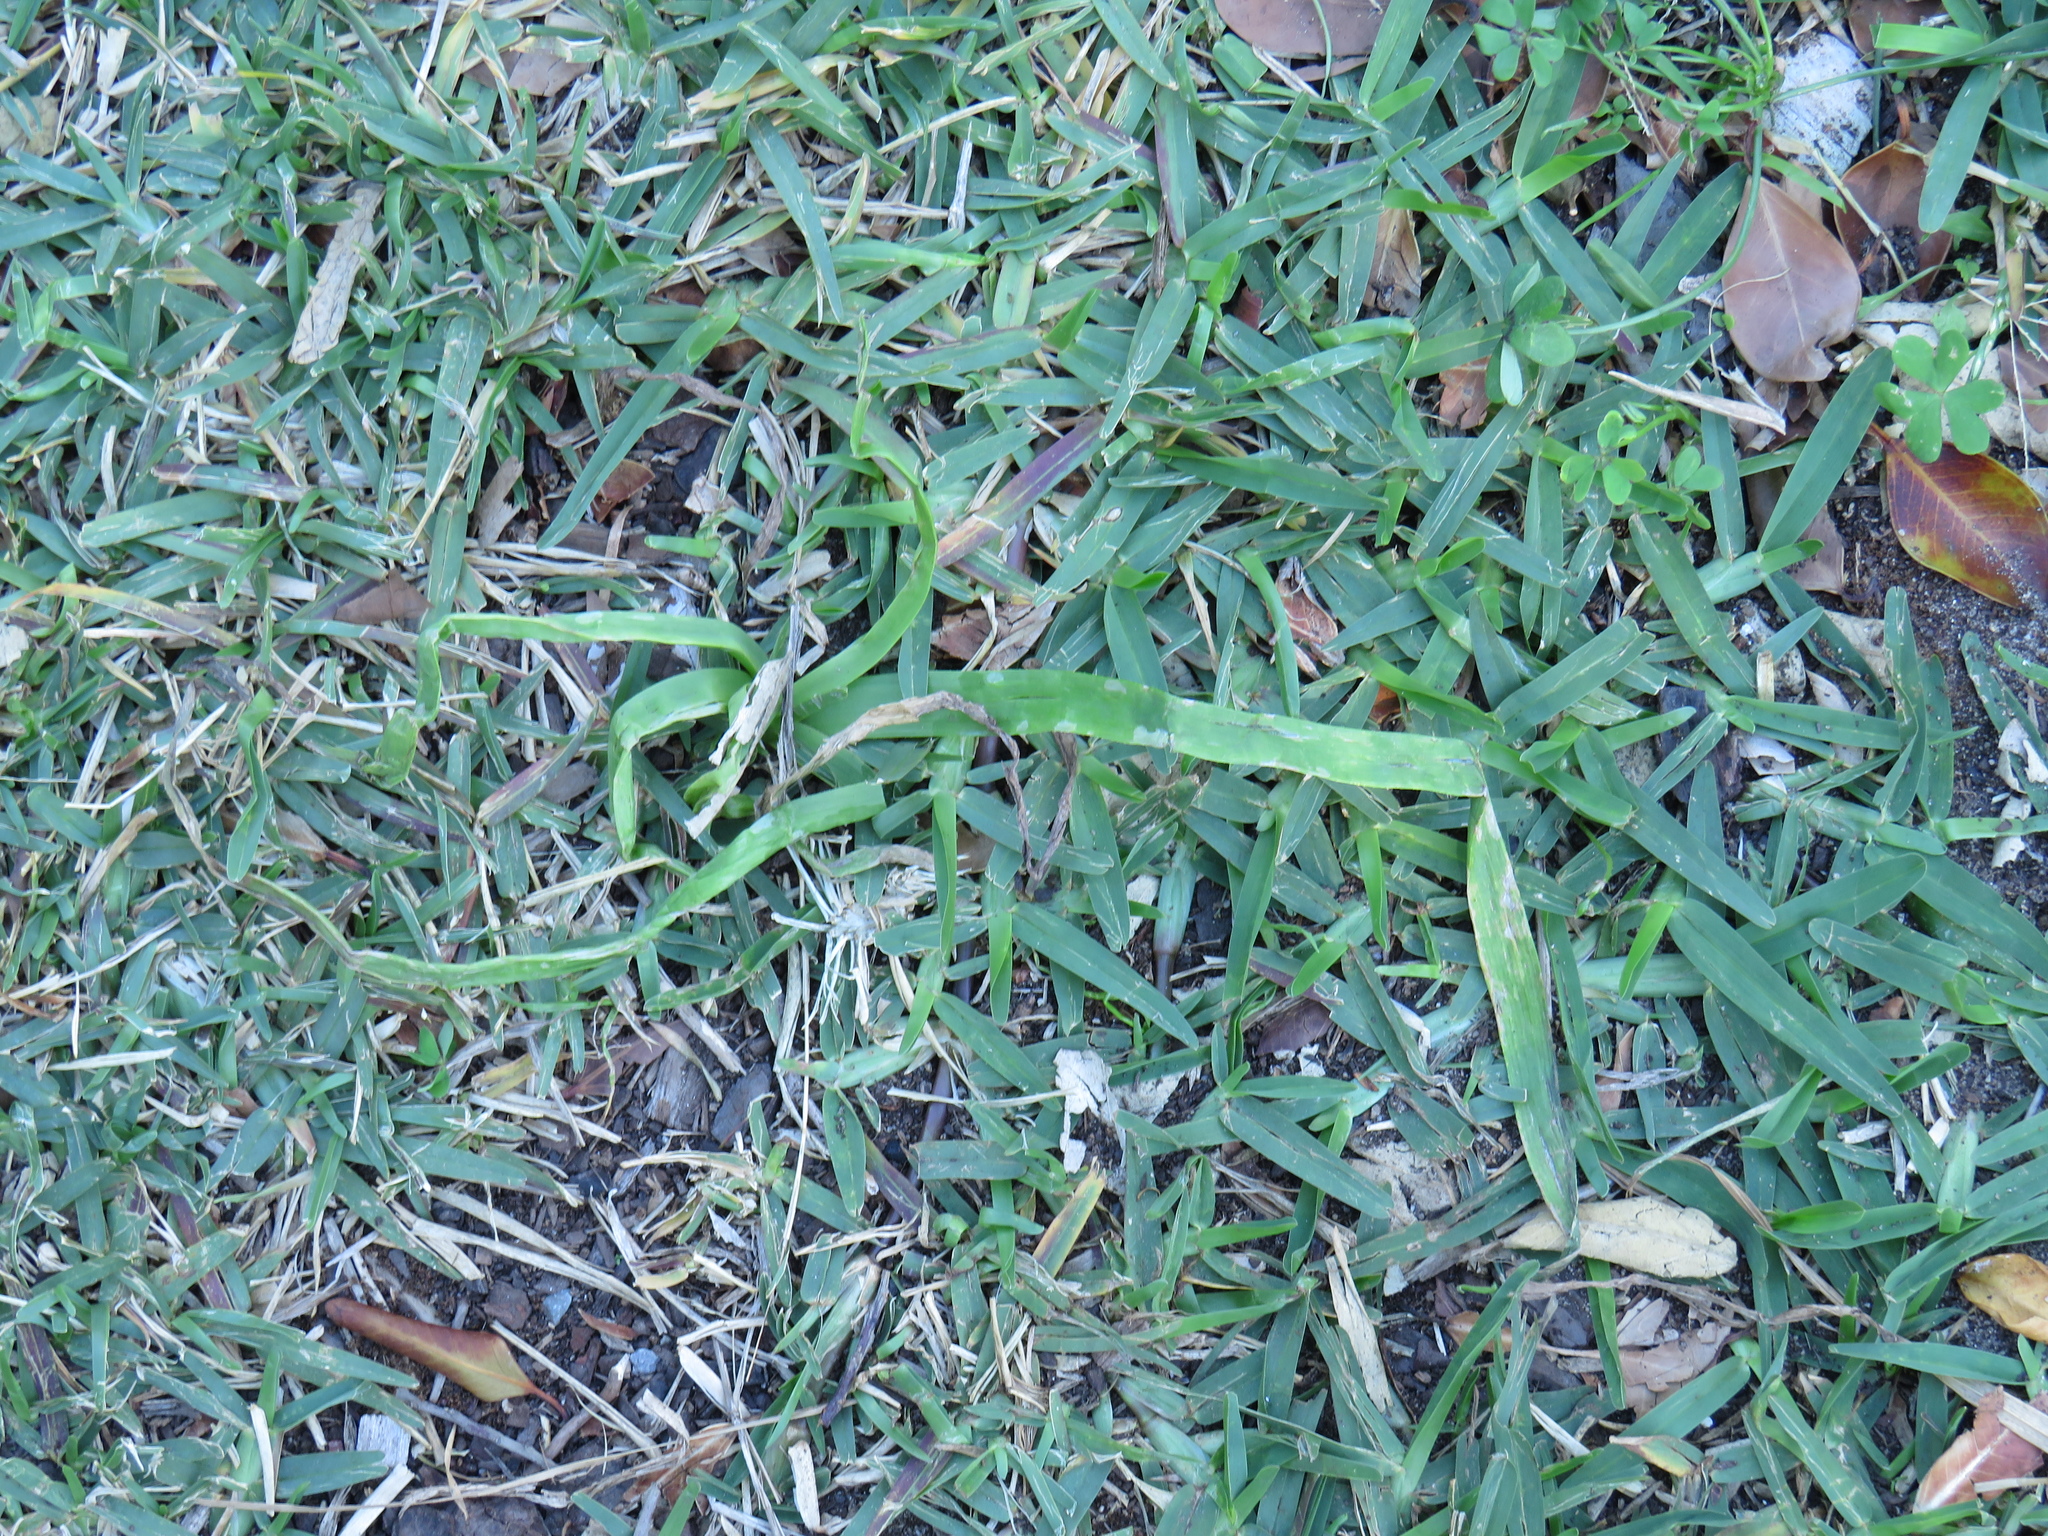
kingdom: Plantae
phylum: Tracheophyta
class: Liliopsida
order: Asparagales
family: Asphodelaceae
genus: Trachyandra
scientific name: Trachyandra ciliata
